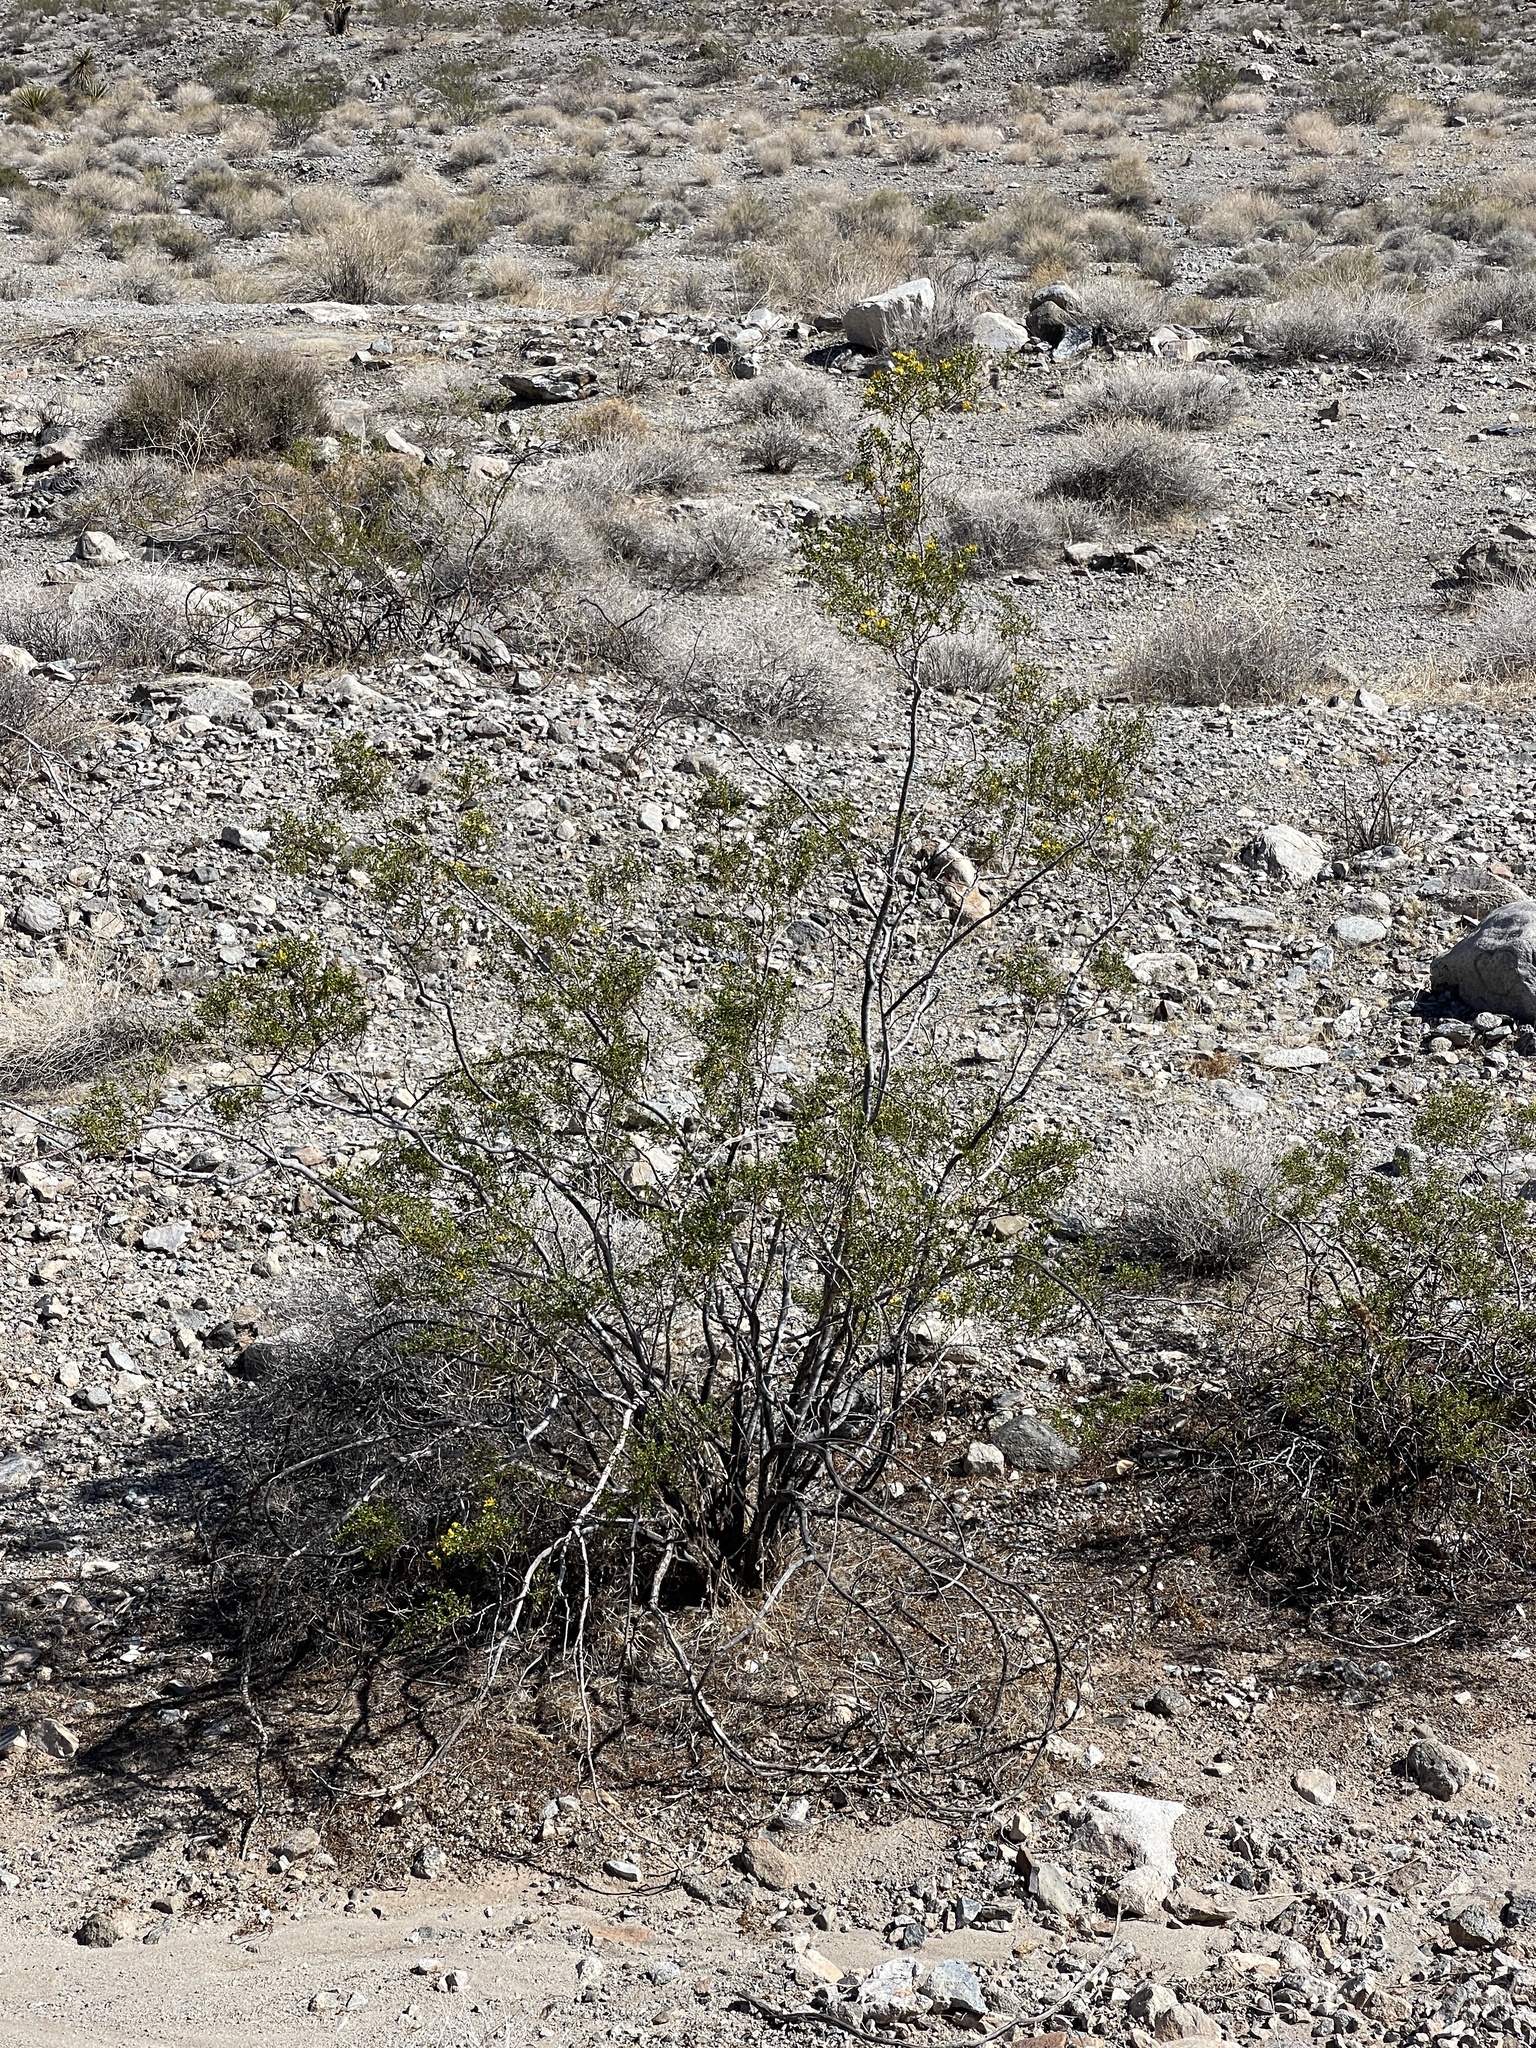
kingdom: Plantae
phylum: Tracheophyta
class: Magnoliopsida
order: Zygophyllales
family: Zygophyllaceae
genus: Larrea
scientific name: Larrea tridentata
